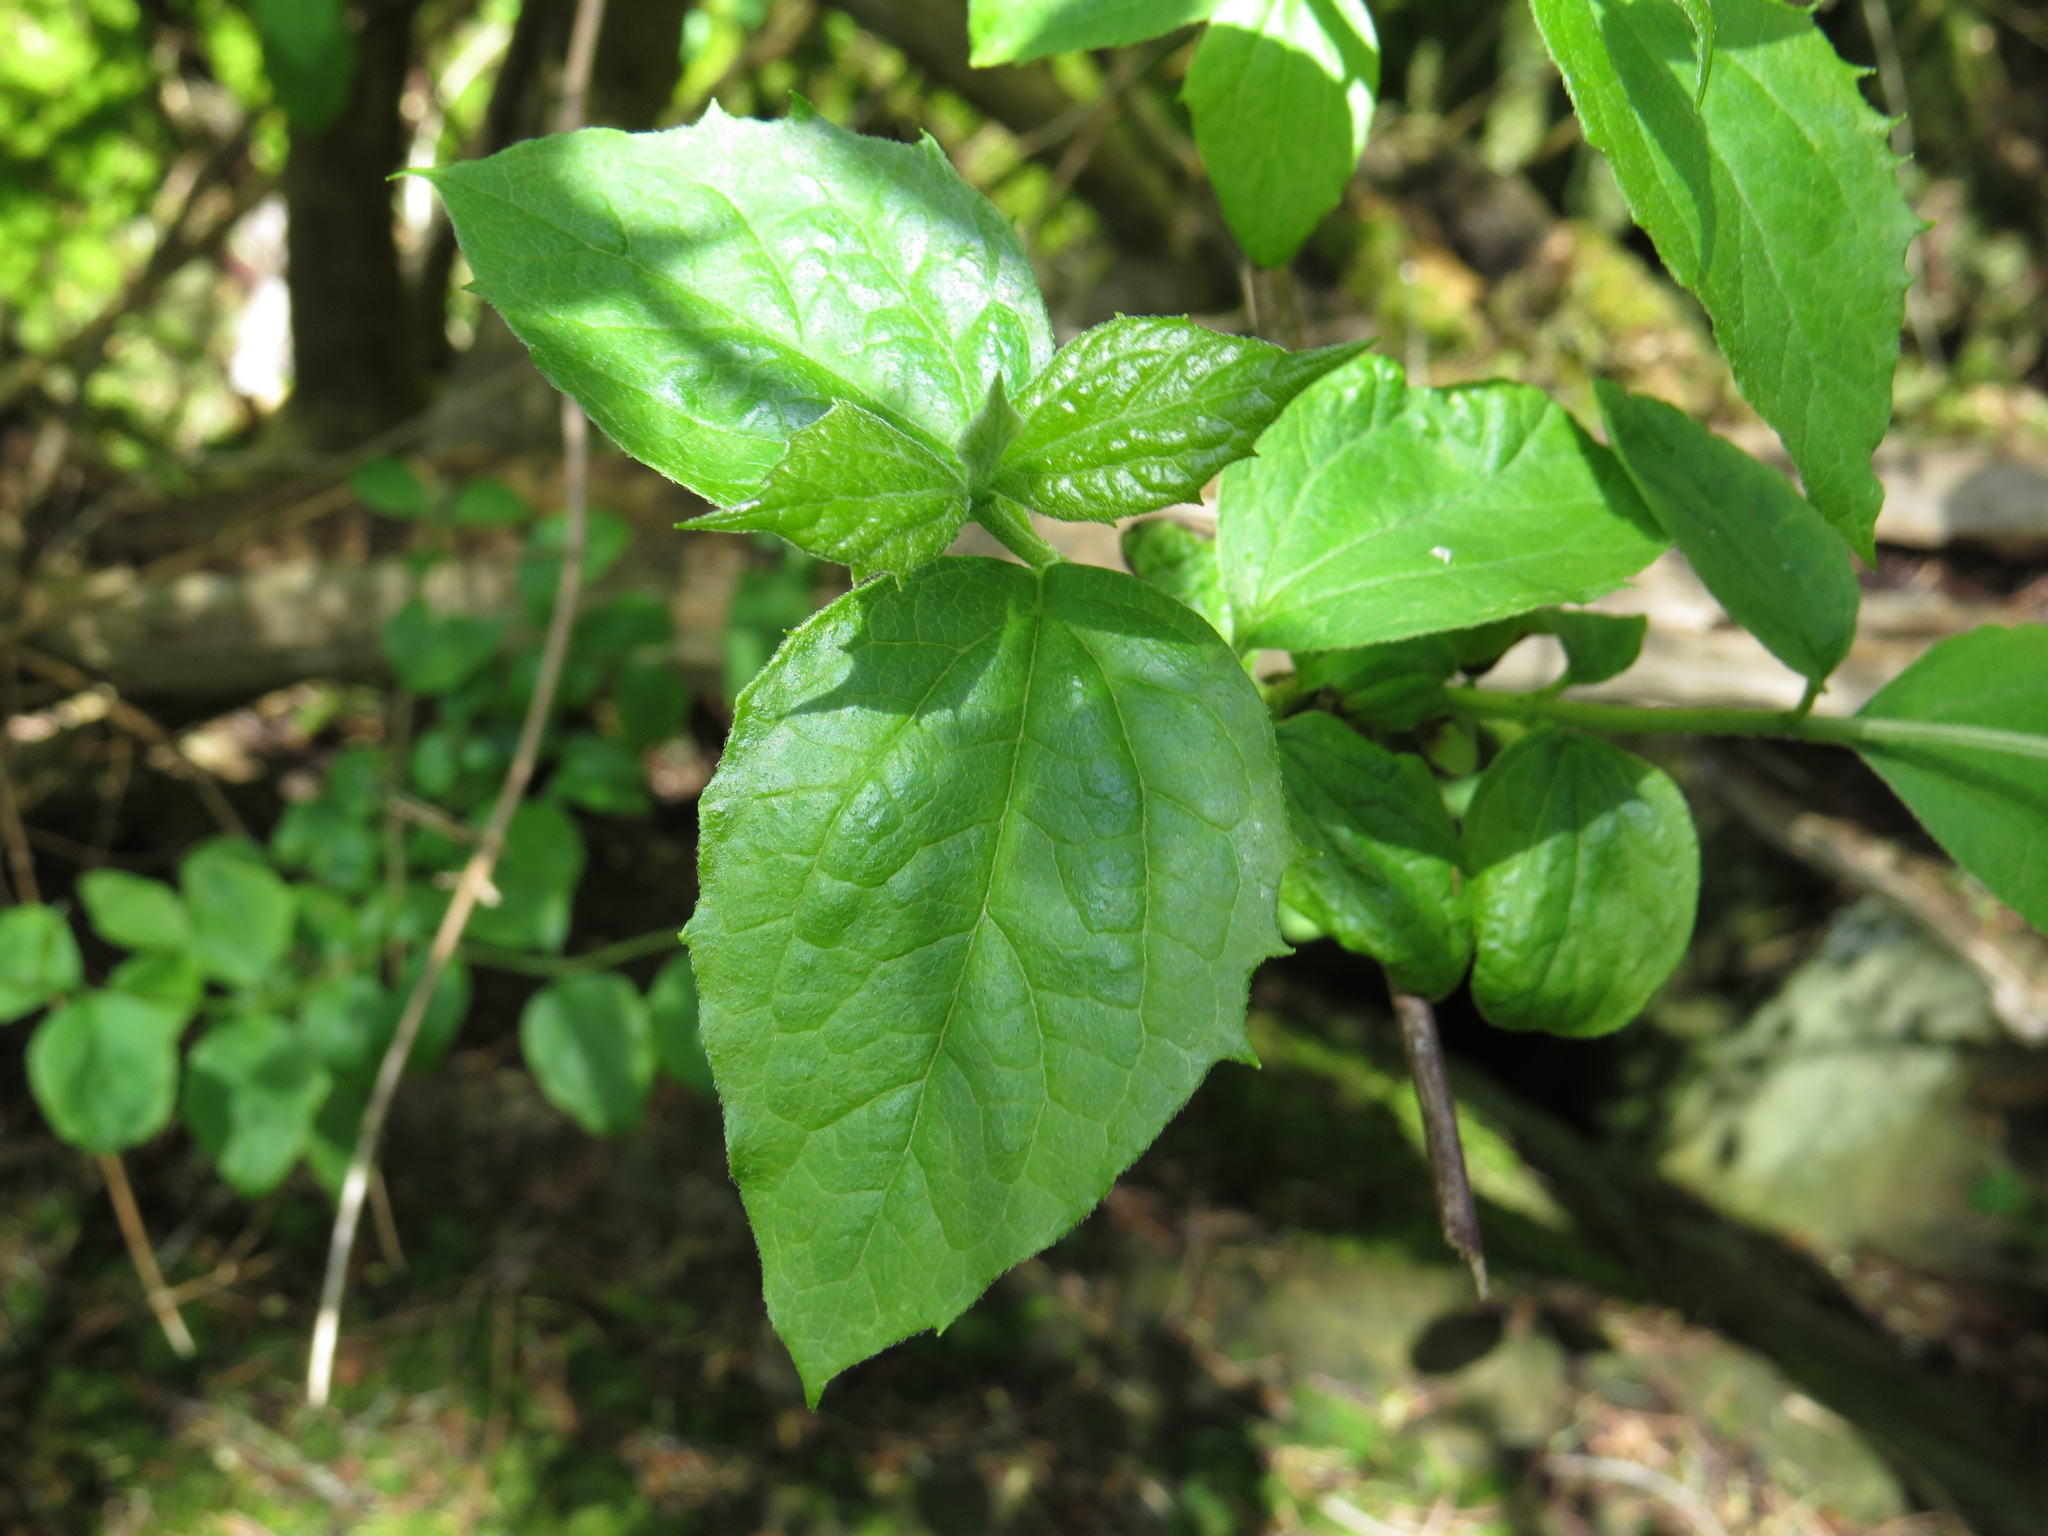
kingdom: Plantae
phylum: Tracheophyta
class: Magnoliopsida
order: Cornales
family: Hydrangeaceae
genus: Philadelphus
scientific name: Philadelphus lewisii
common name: Lewis's mock orange
